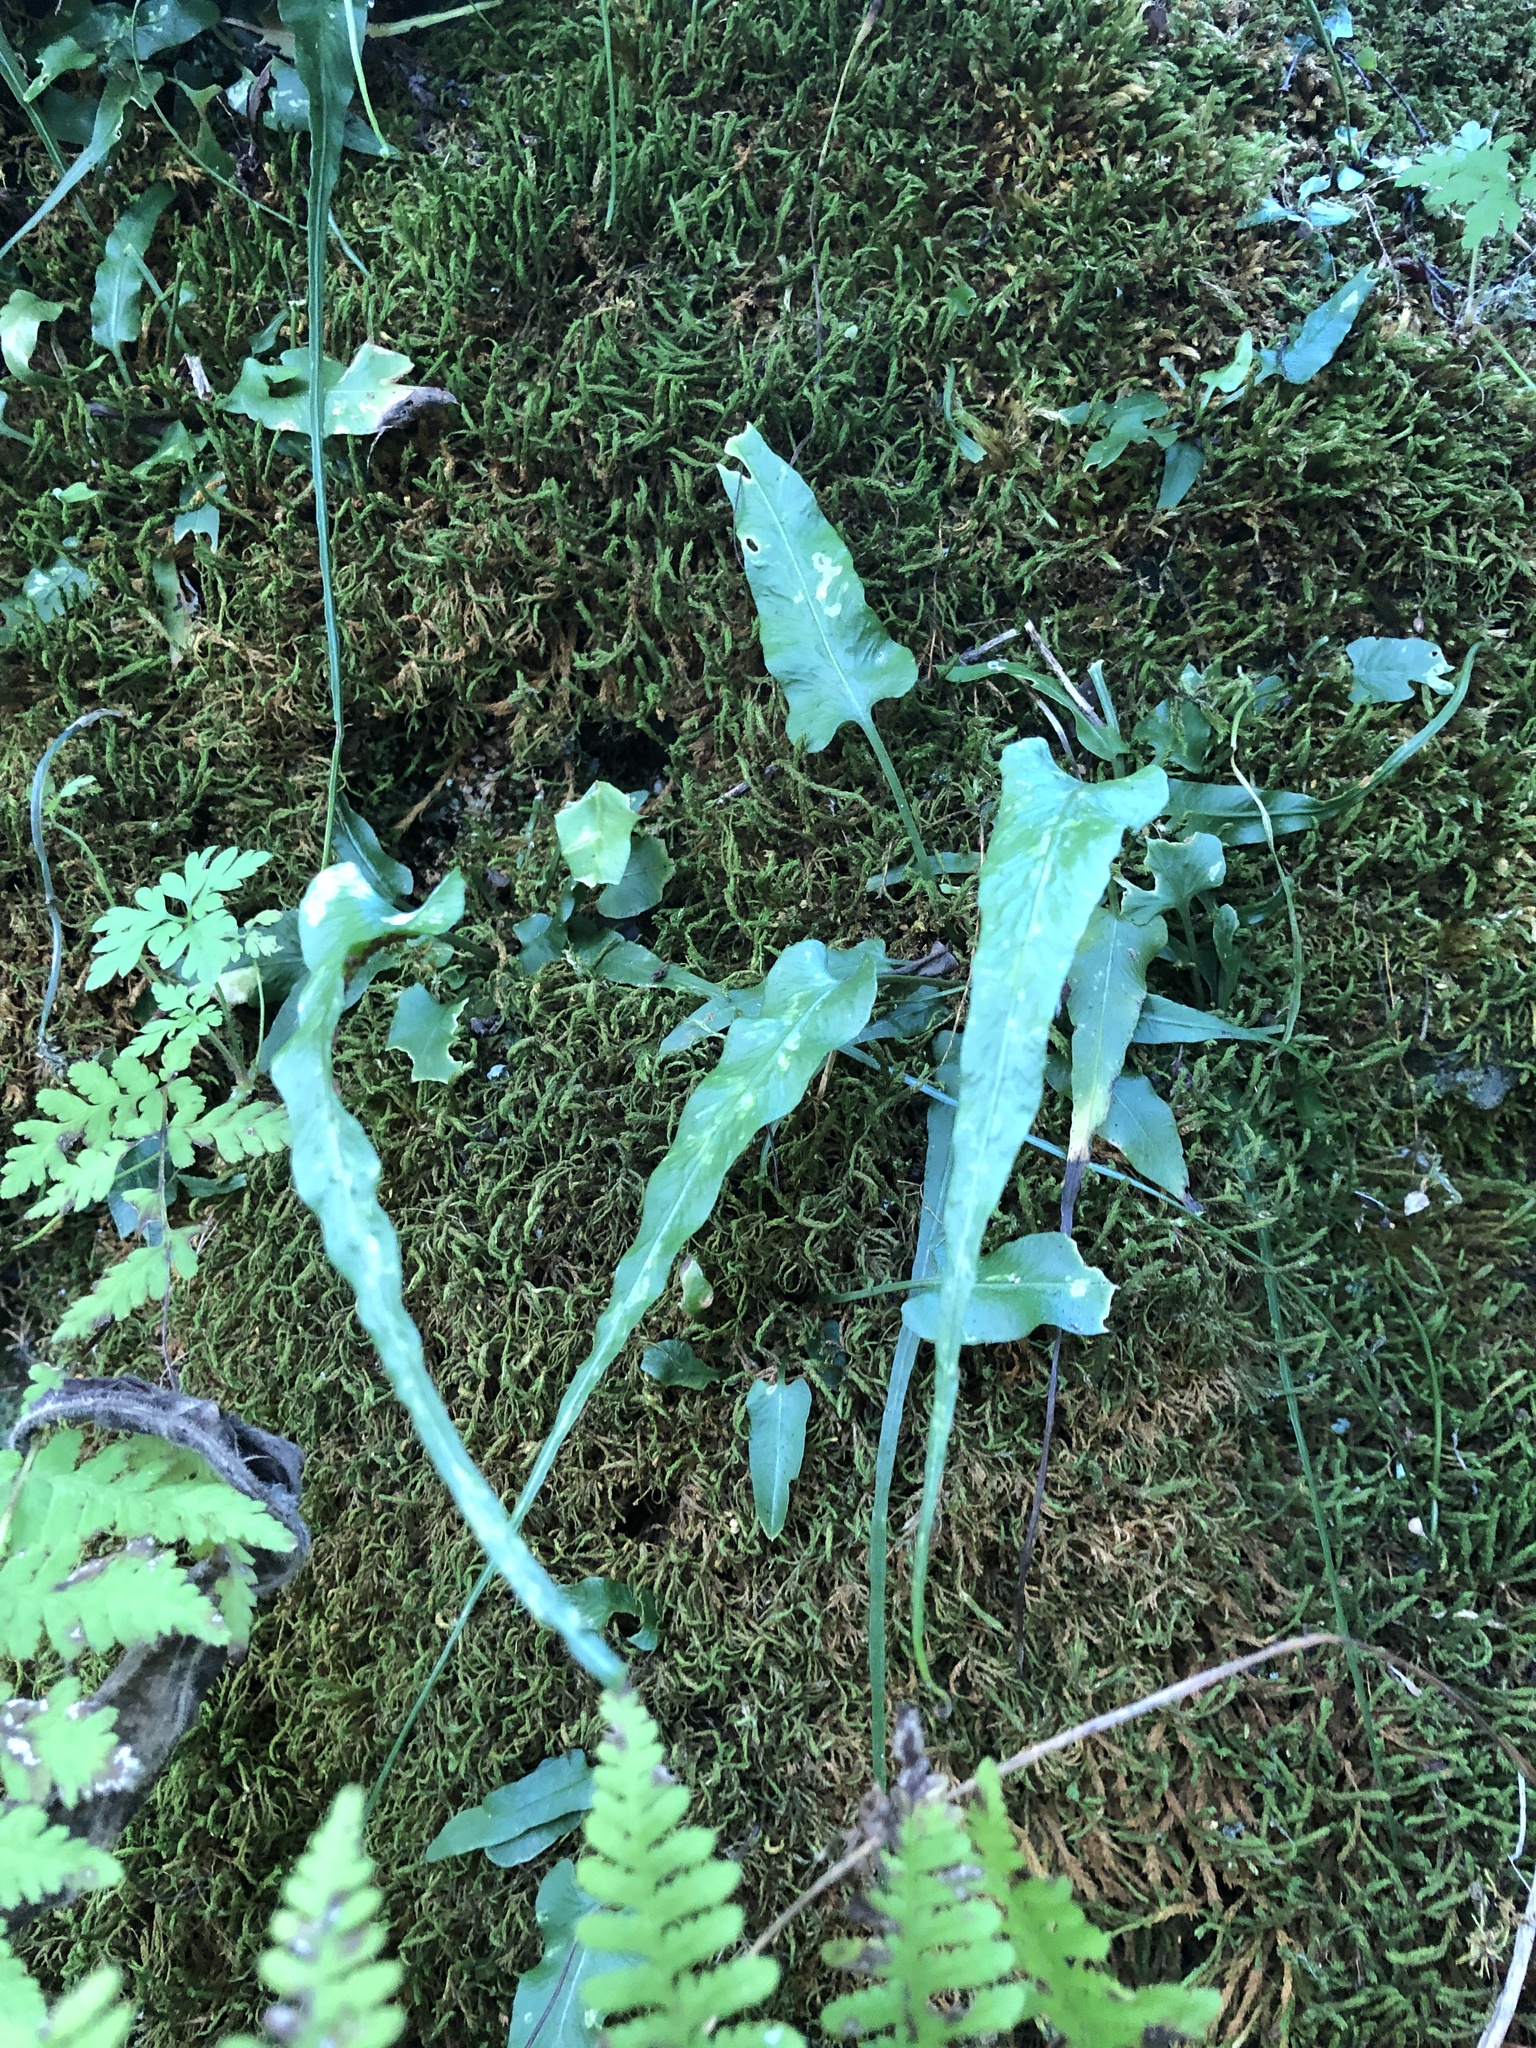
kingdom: Plantae
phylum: Tracheophyta
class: Polypodiopsida
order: Polypodiales
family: Aspleniaceae
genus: Asplenium
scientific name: Asplenium rhizophyllum
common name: Walking fern
